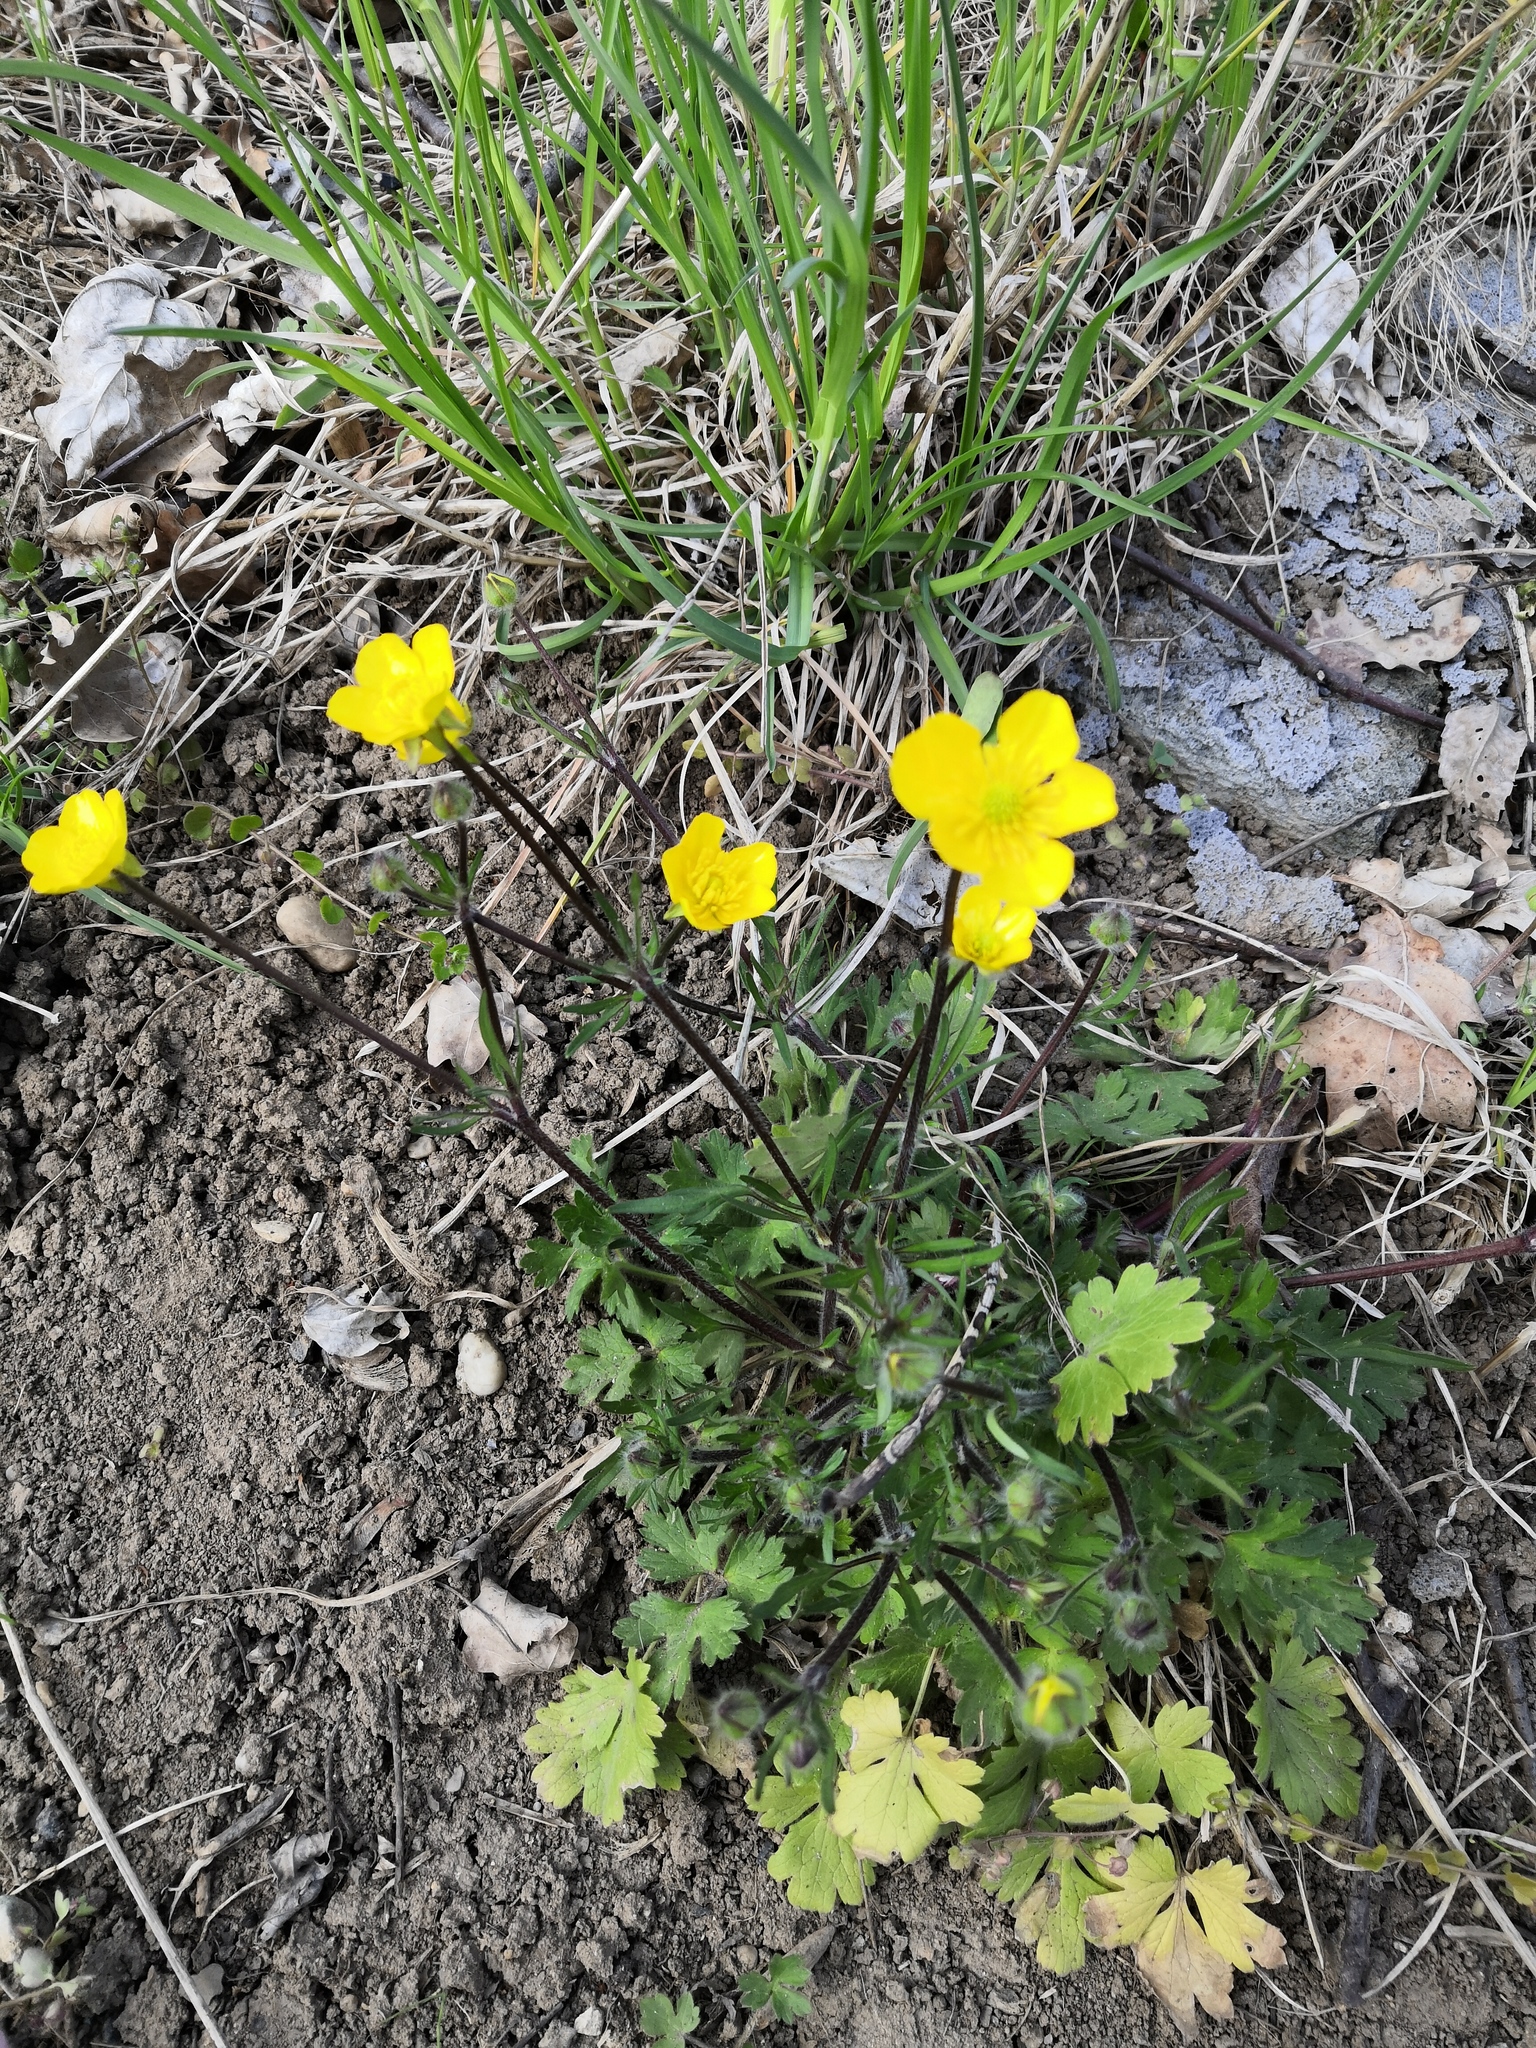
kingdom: Plantae
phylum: Tracheophyta
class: Magnoliopsida
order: Ranunculales
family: Ranunculaceae
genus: Ranunculus
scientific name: Ranunculus bulbosus
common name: Bulbous buttercup
